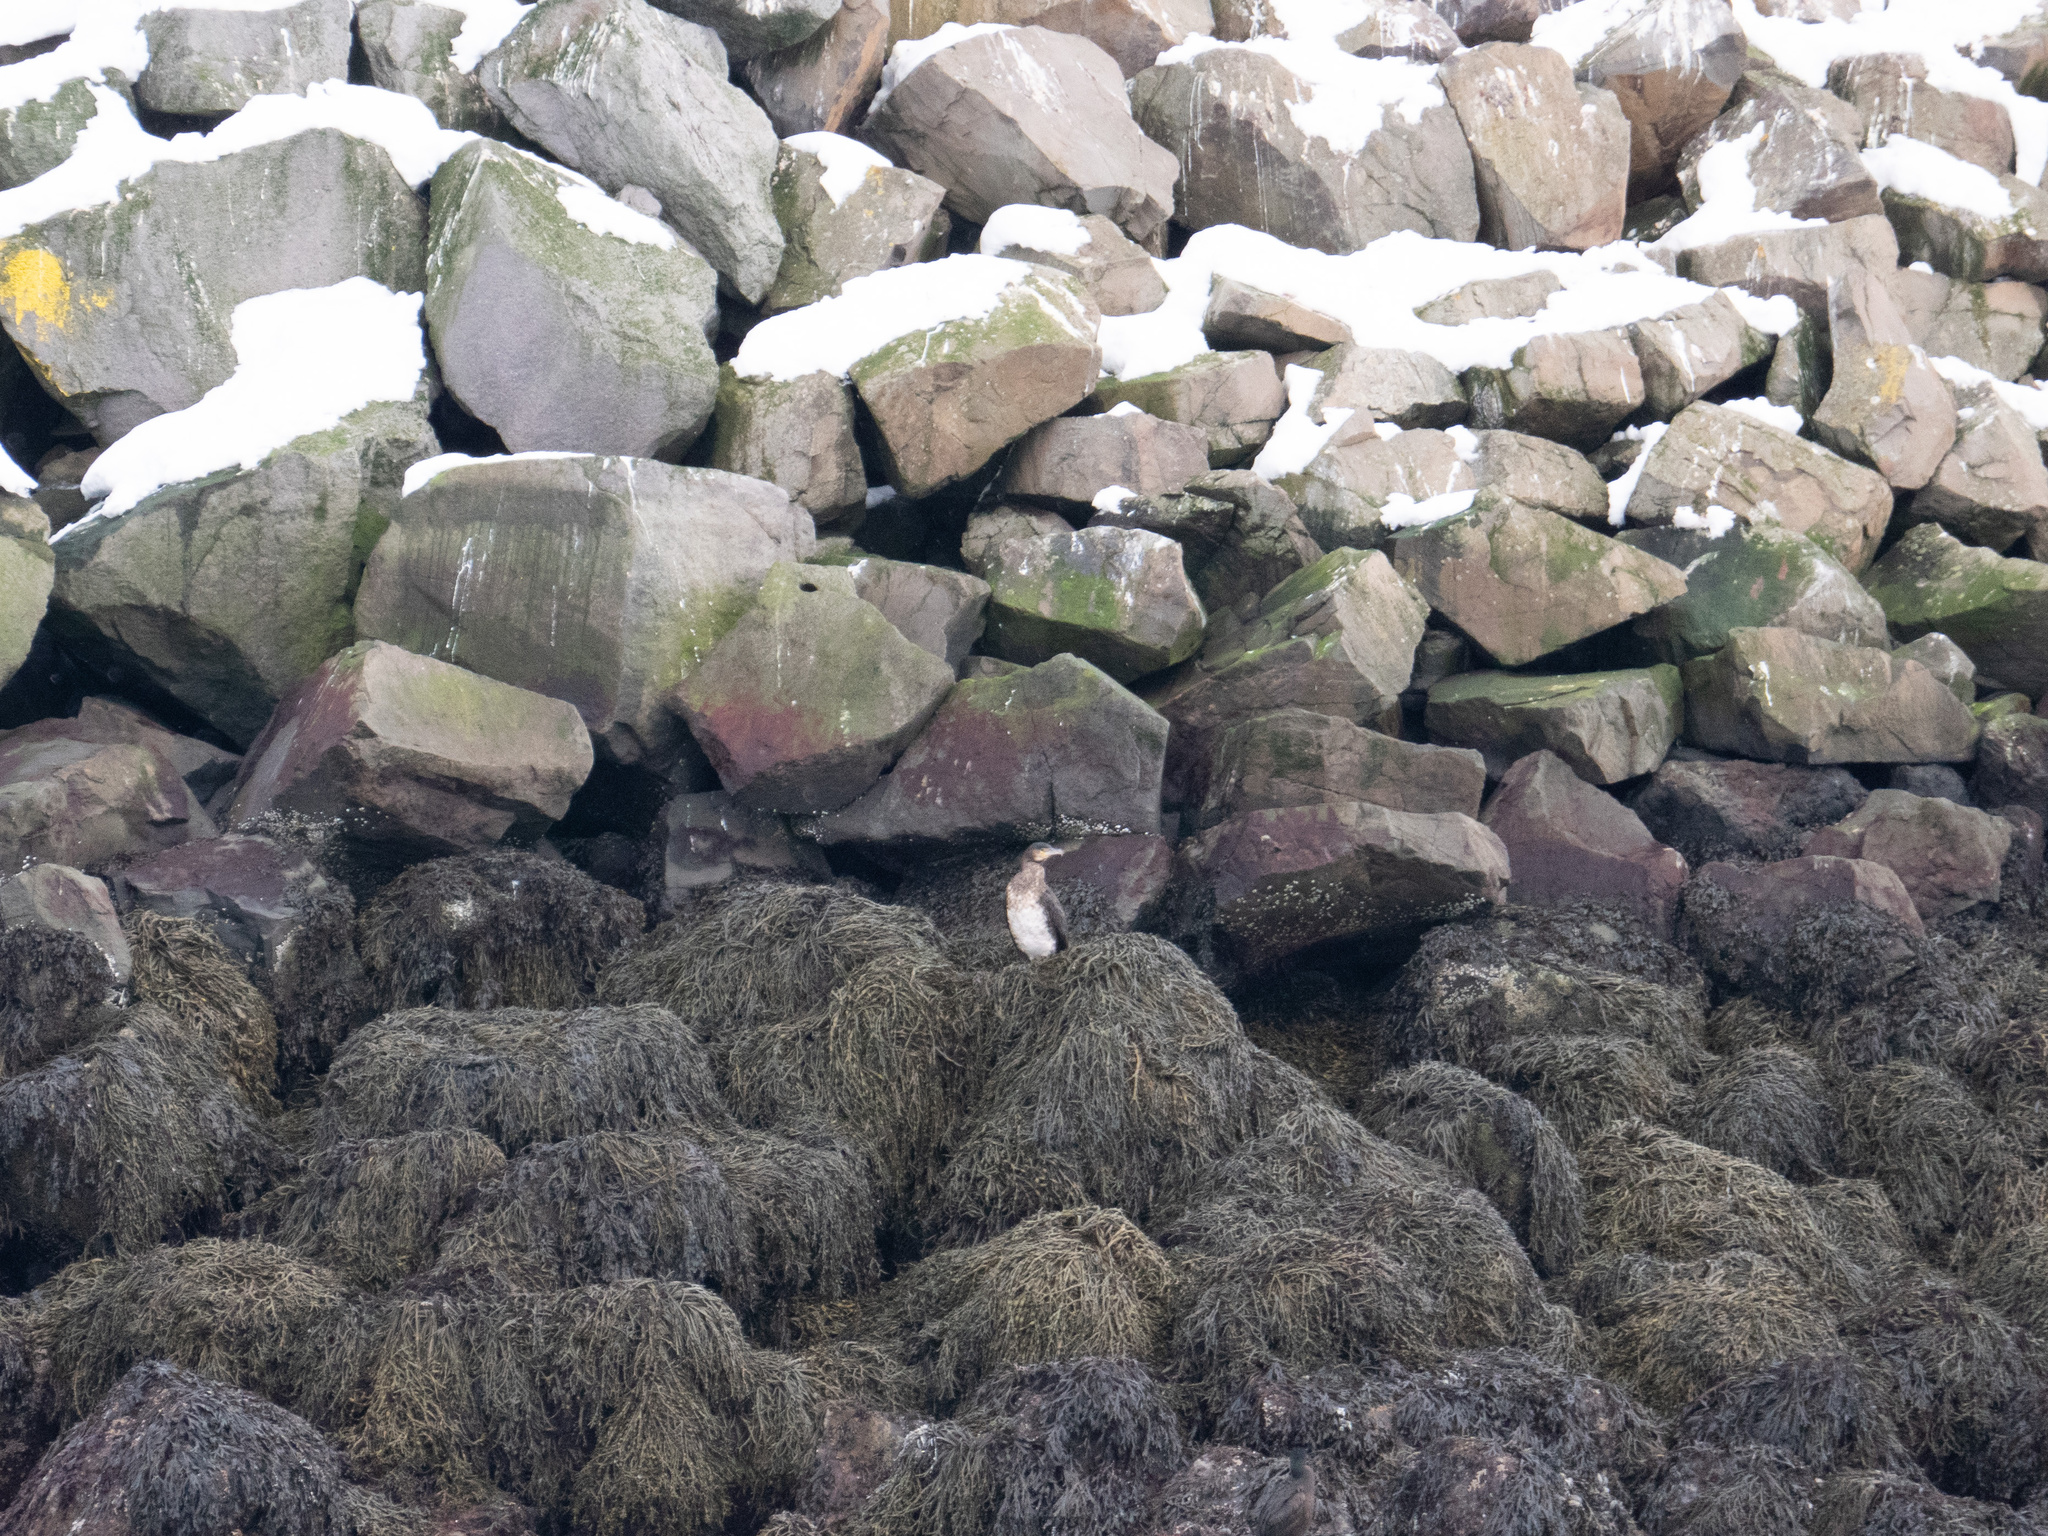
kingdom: Animalia
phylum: Chordata
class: Aves
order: Suliformes
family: Phalacrocoracidae
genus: Phalacrocorax
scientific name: Phalacrocorax carbo
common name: Great cormorant
